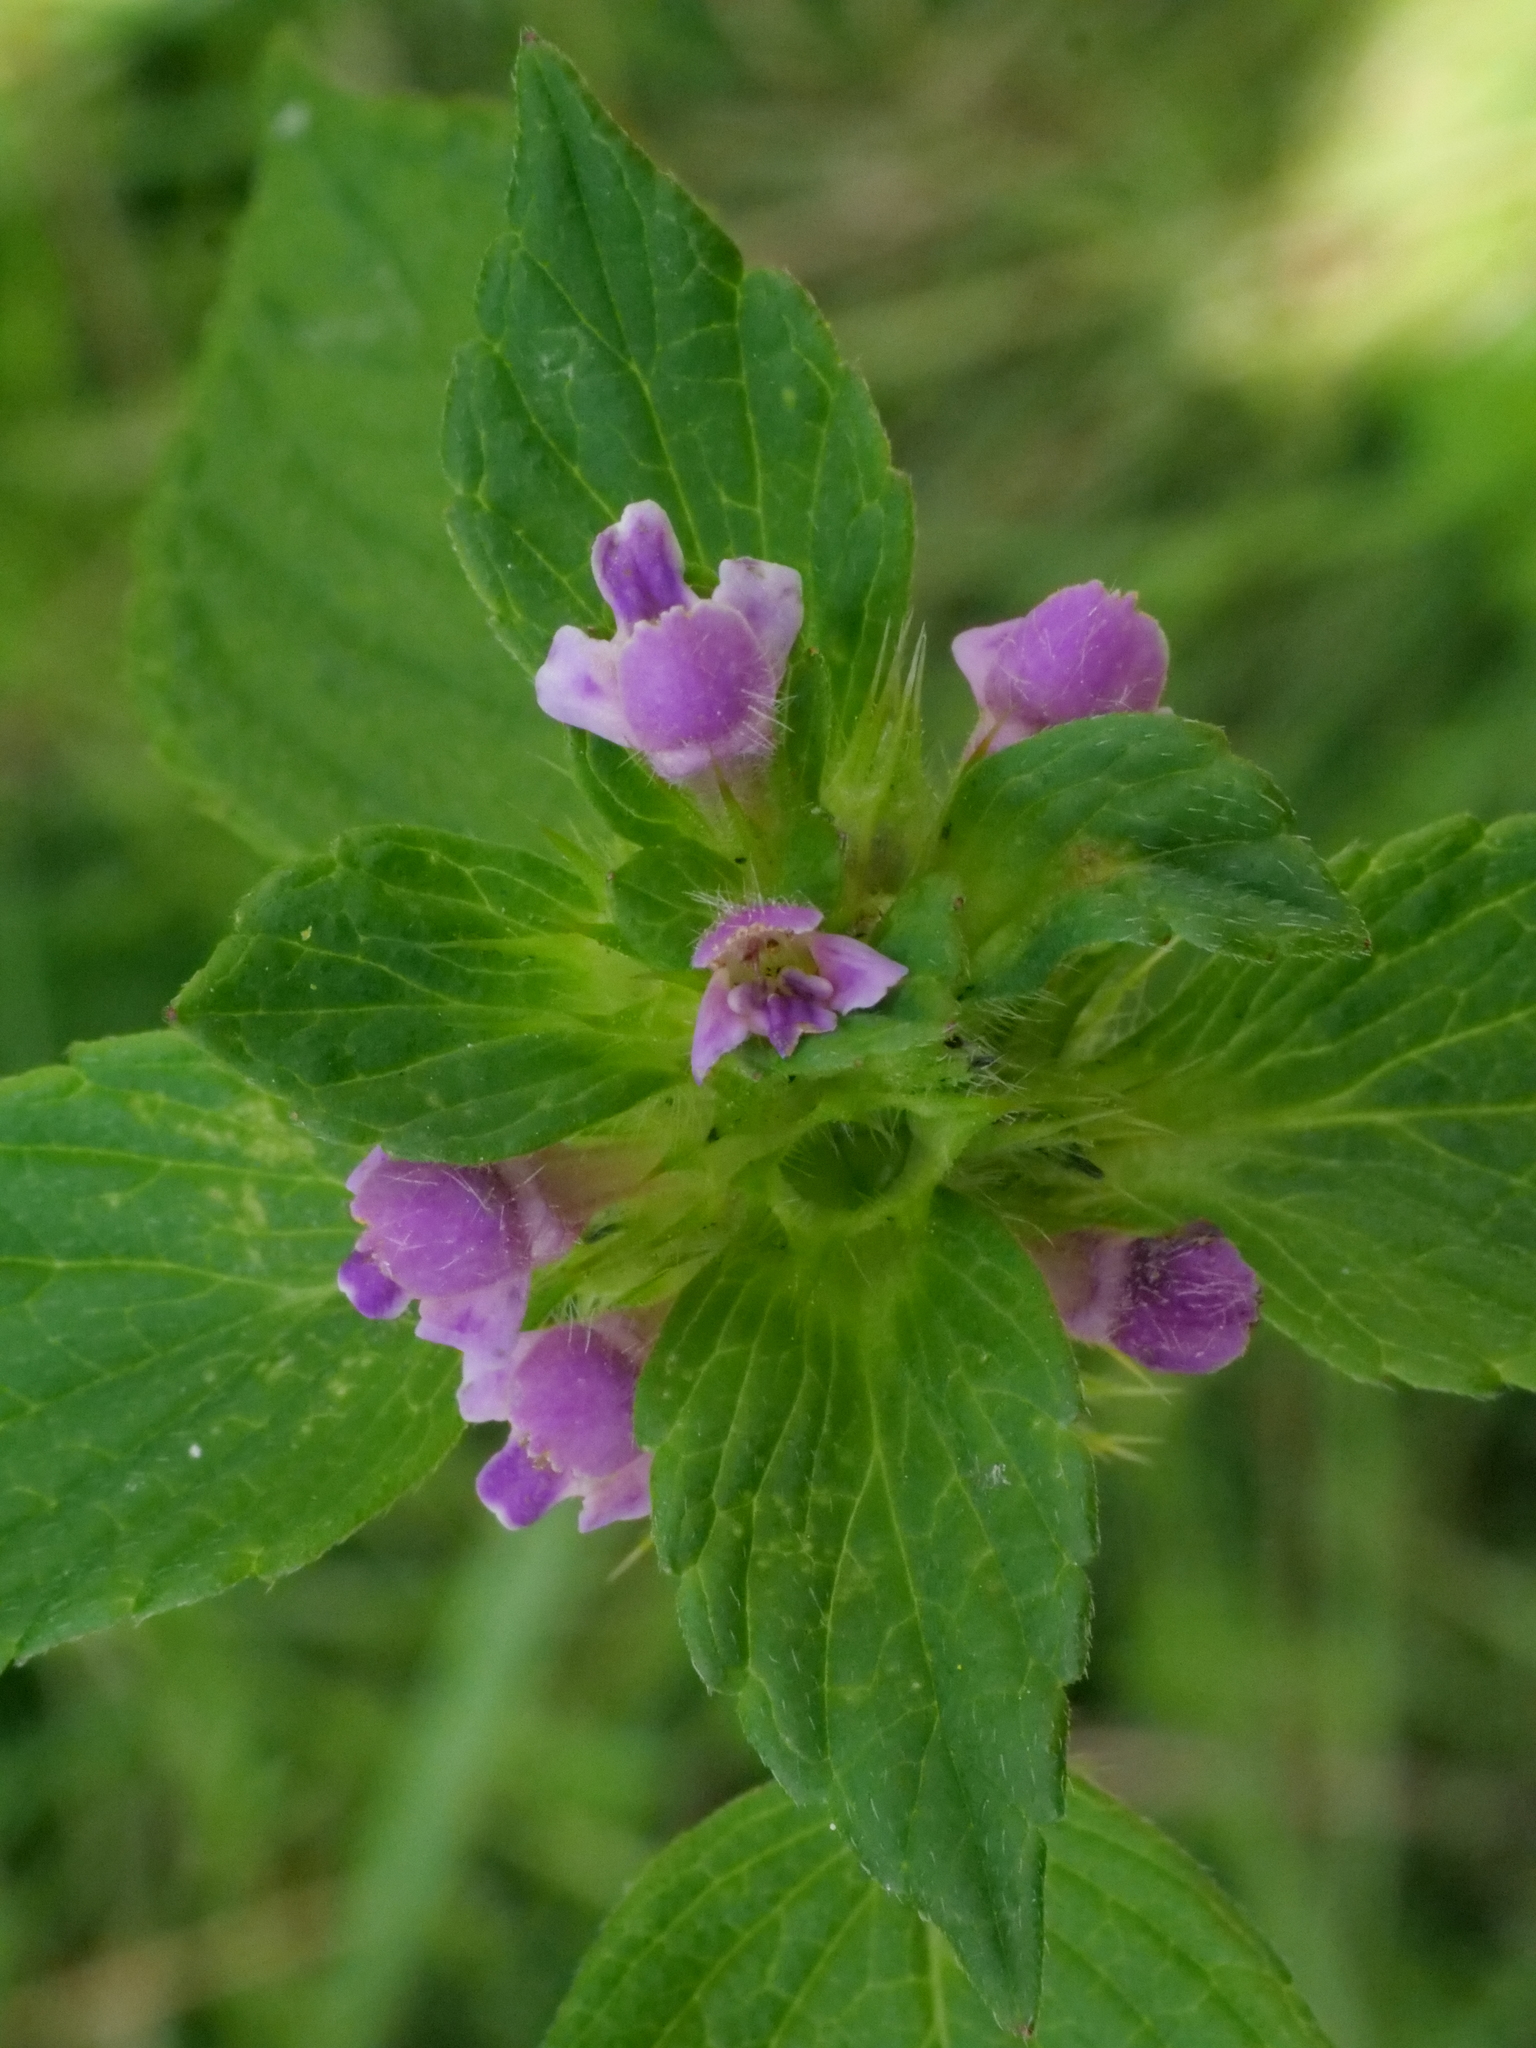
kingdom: Plantae
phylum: Tracheophyta
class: Magnoliopsida
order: Lamiales
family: Lamiaceae
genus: Galeopsis
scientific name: Galeopsis bifida
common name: Bifid hemp-nettle
